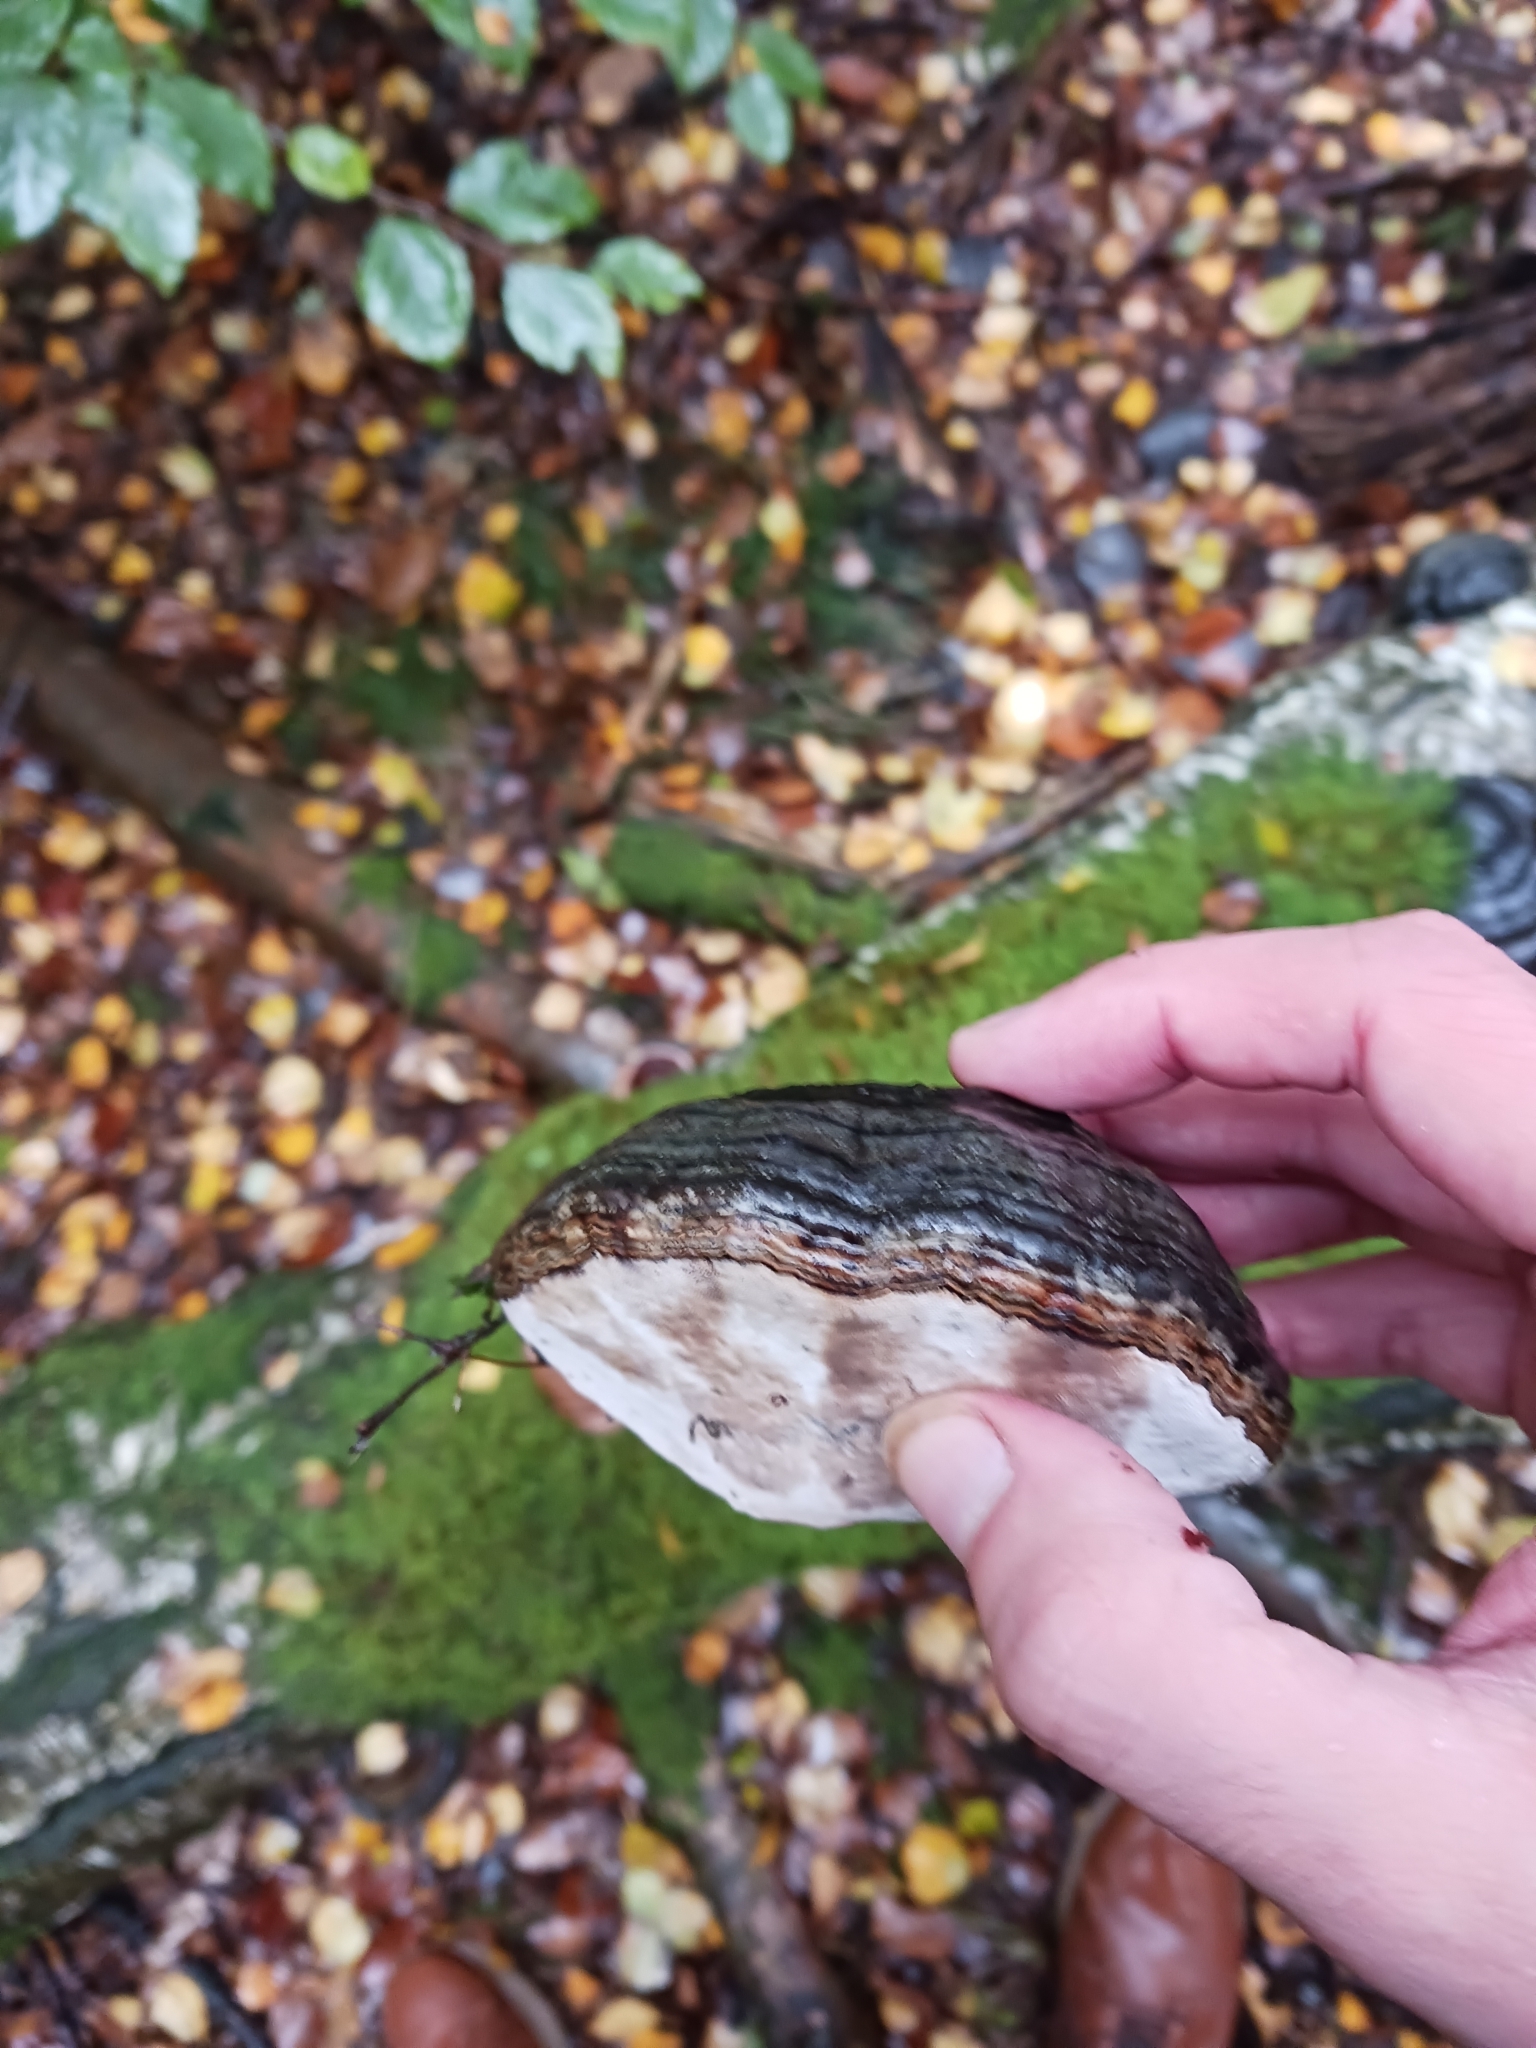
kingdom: Fungi
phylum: Basidiomycota
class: Agaricomycetes
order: Polyporales
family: Polyporaceae
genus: Fomes
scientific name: Fomes fomentarius
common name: Hoof fungus
